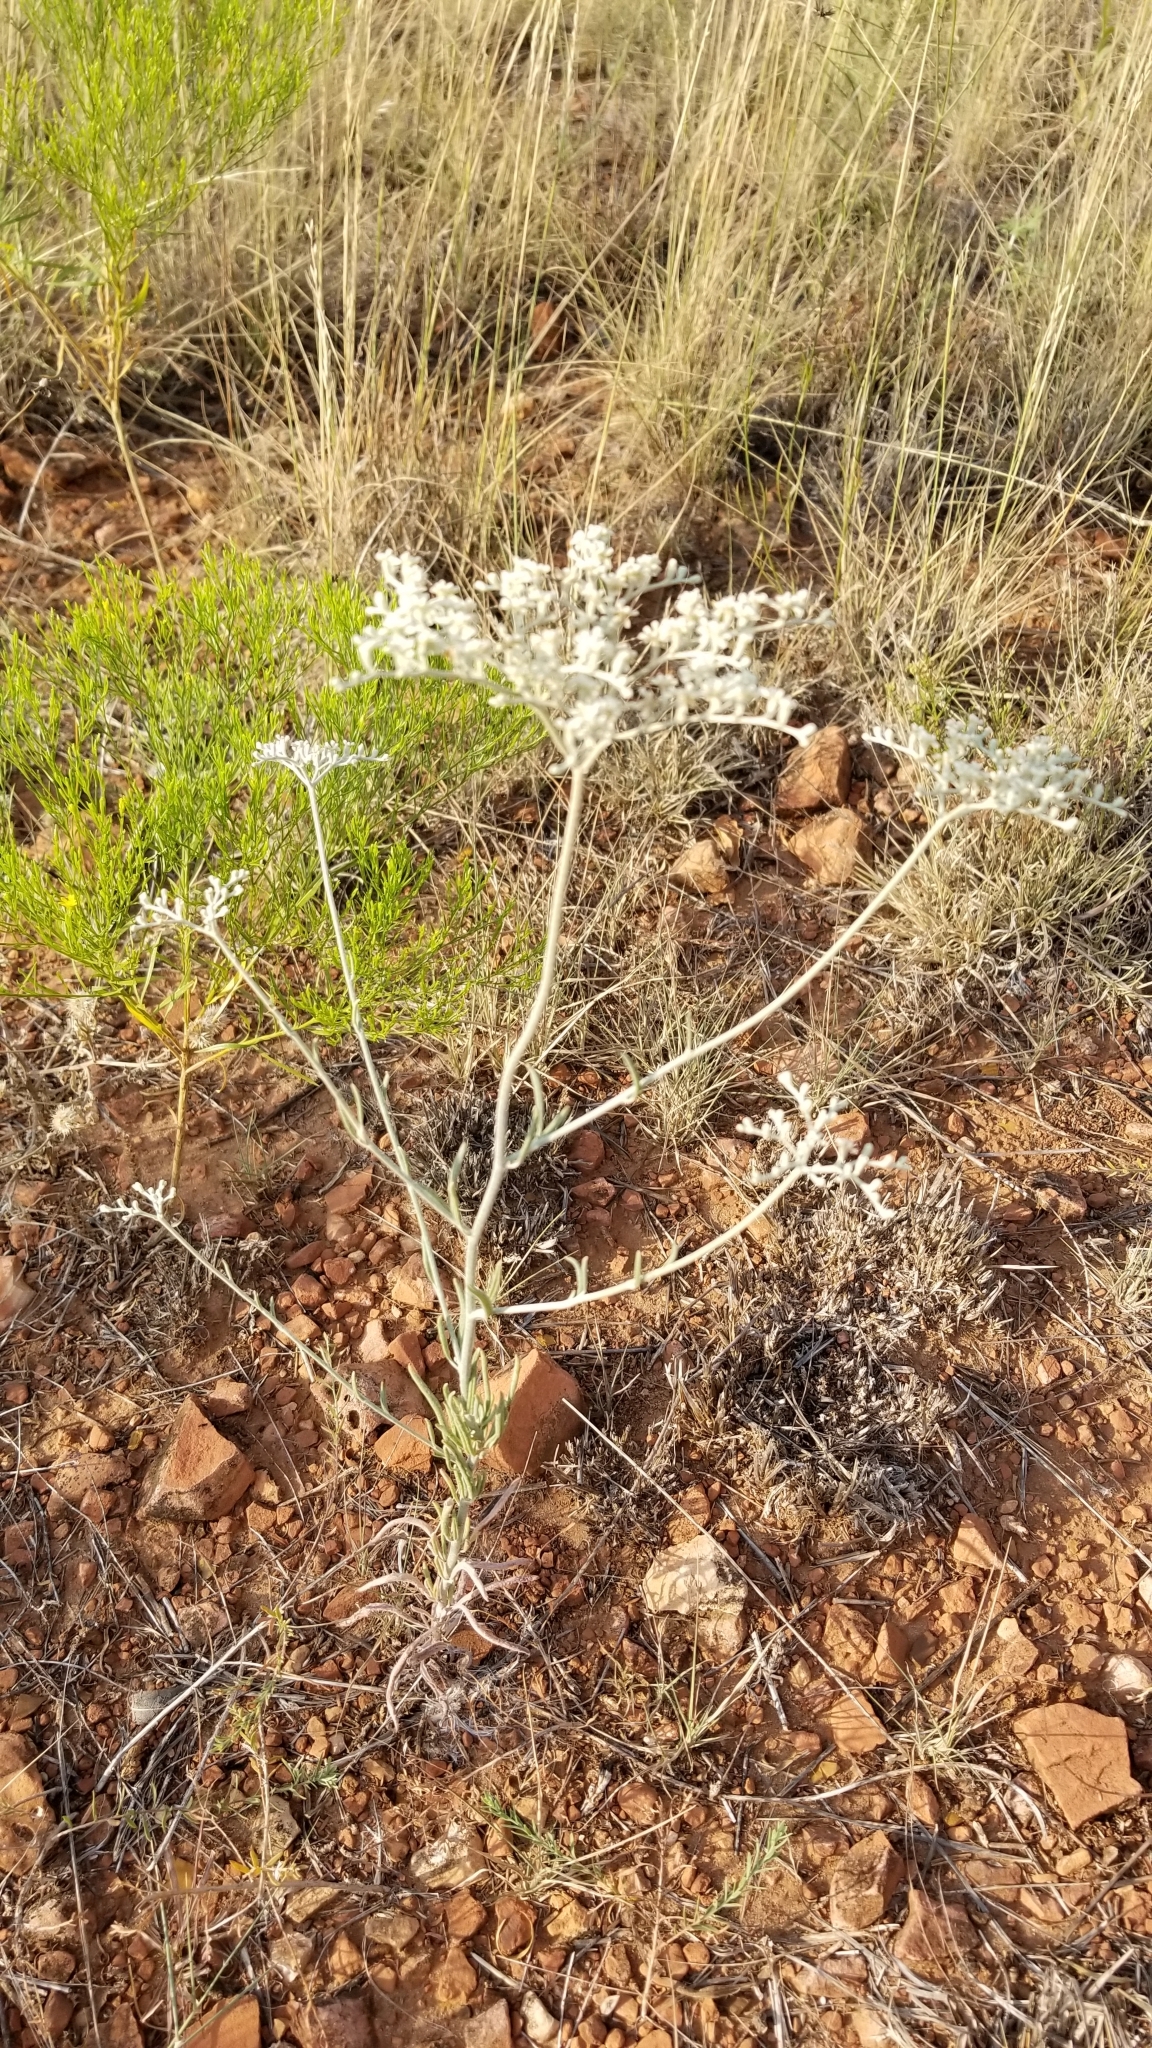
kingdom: Plantae
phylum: Tracheophyta
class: Magnoliopsida
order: Caryophyllales
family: Polygonaceae
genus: Eriogonum
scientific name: Eriogonum annuum
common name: Annual wild buckwheat
